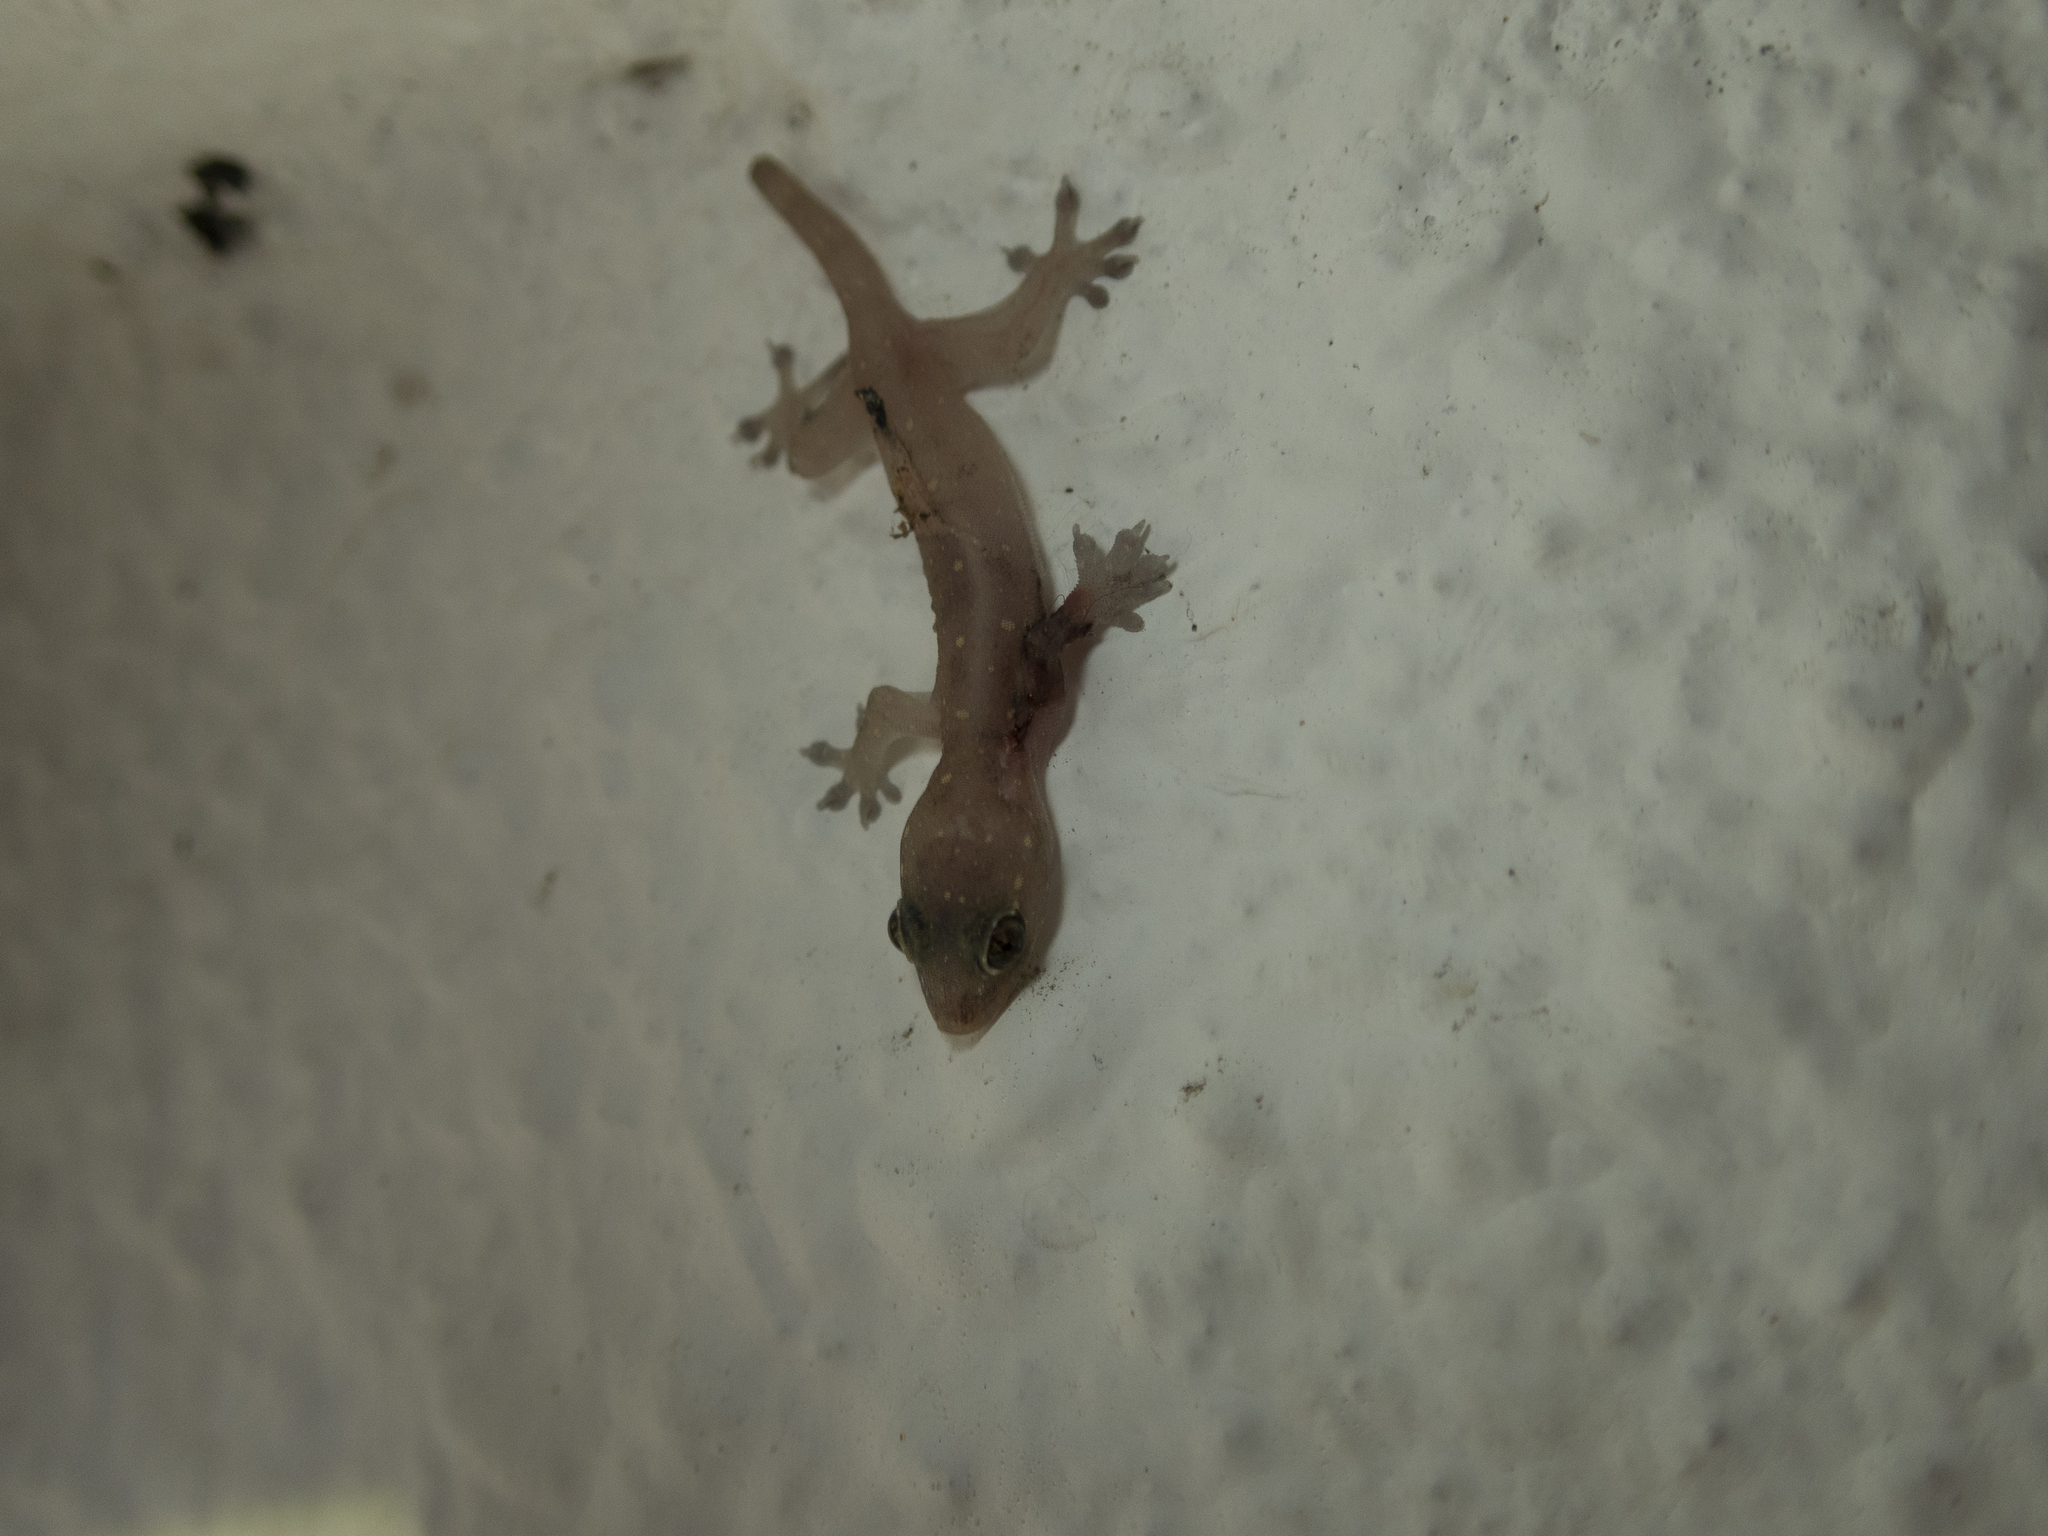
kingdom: Animalia
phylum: Chordata
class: Squamata
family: Gekkonidae
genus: Gehyra
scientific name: Gehyra mutilata
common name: Stump-toed gecko
